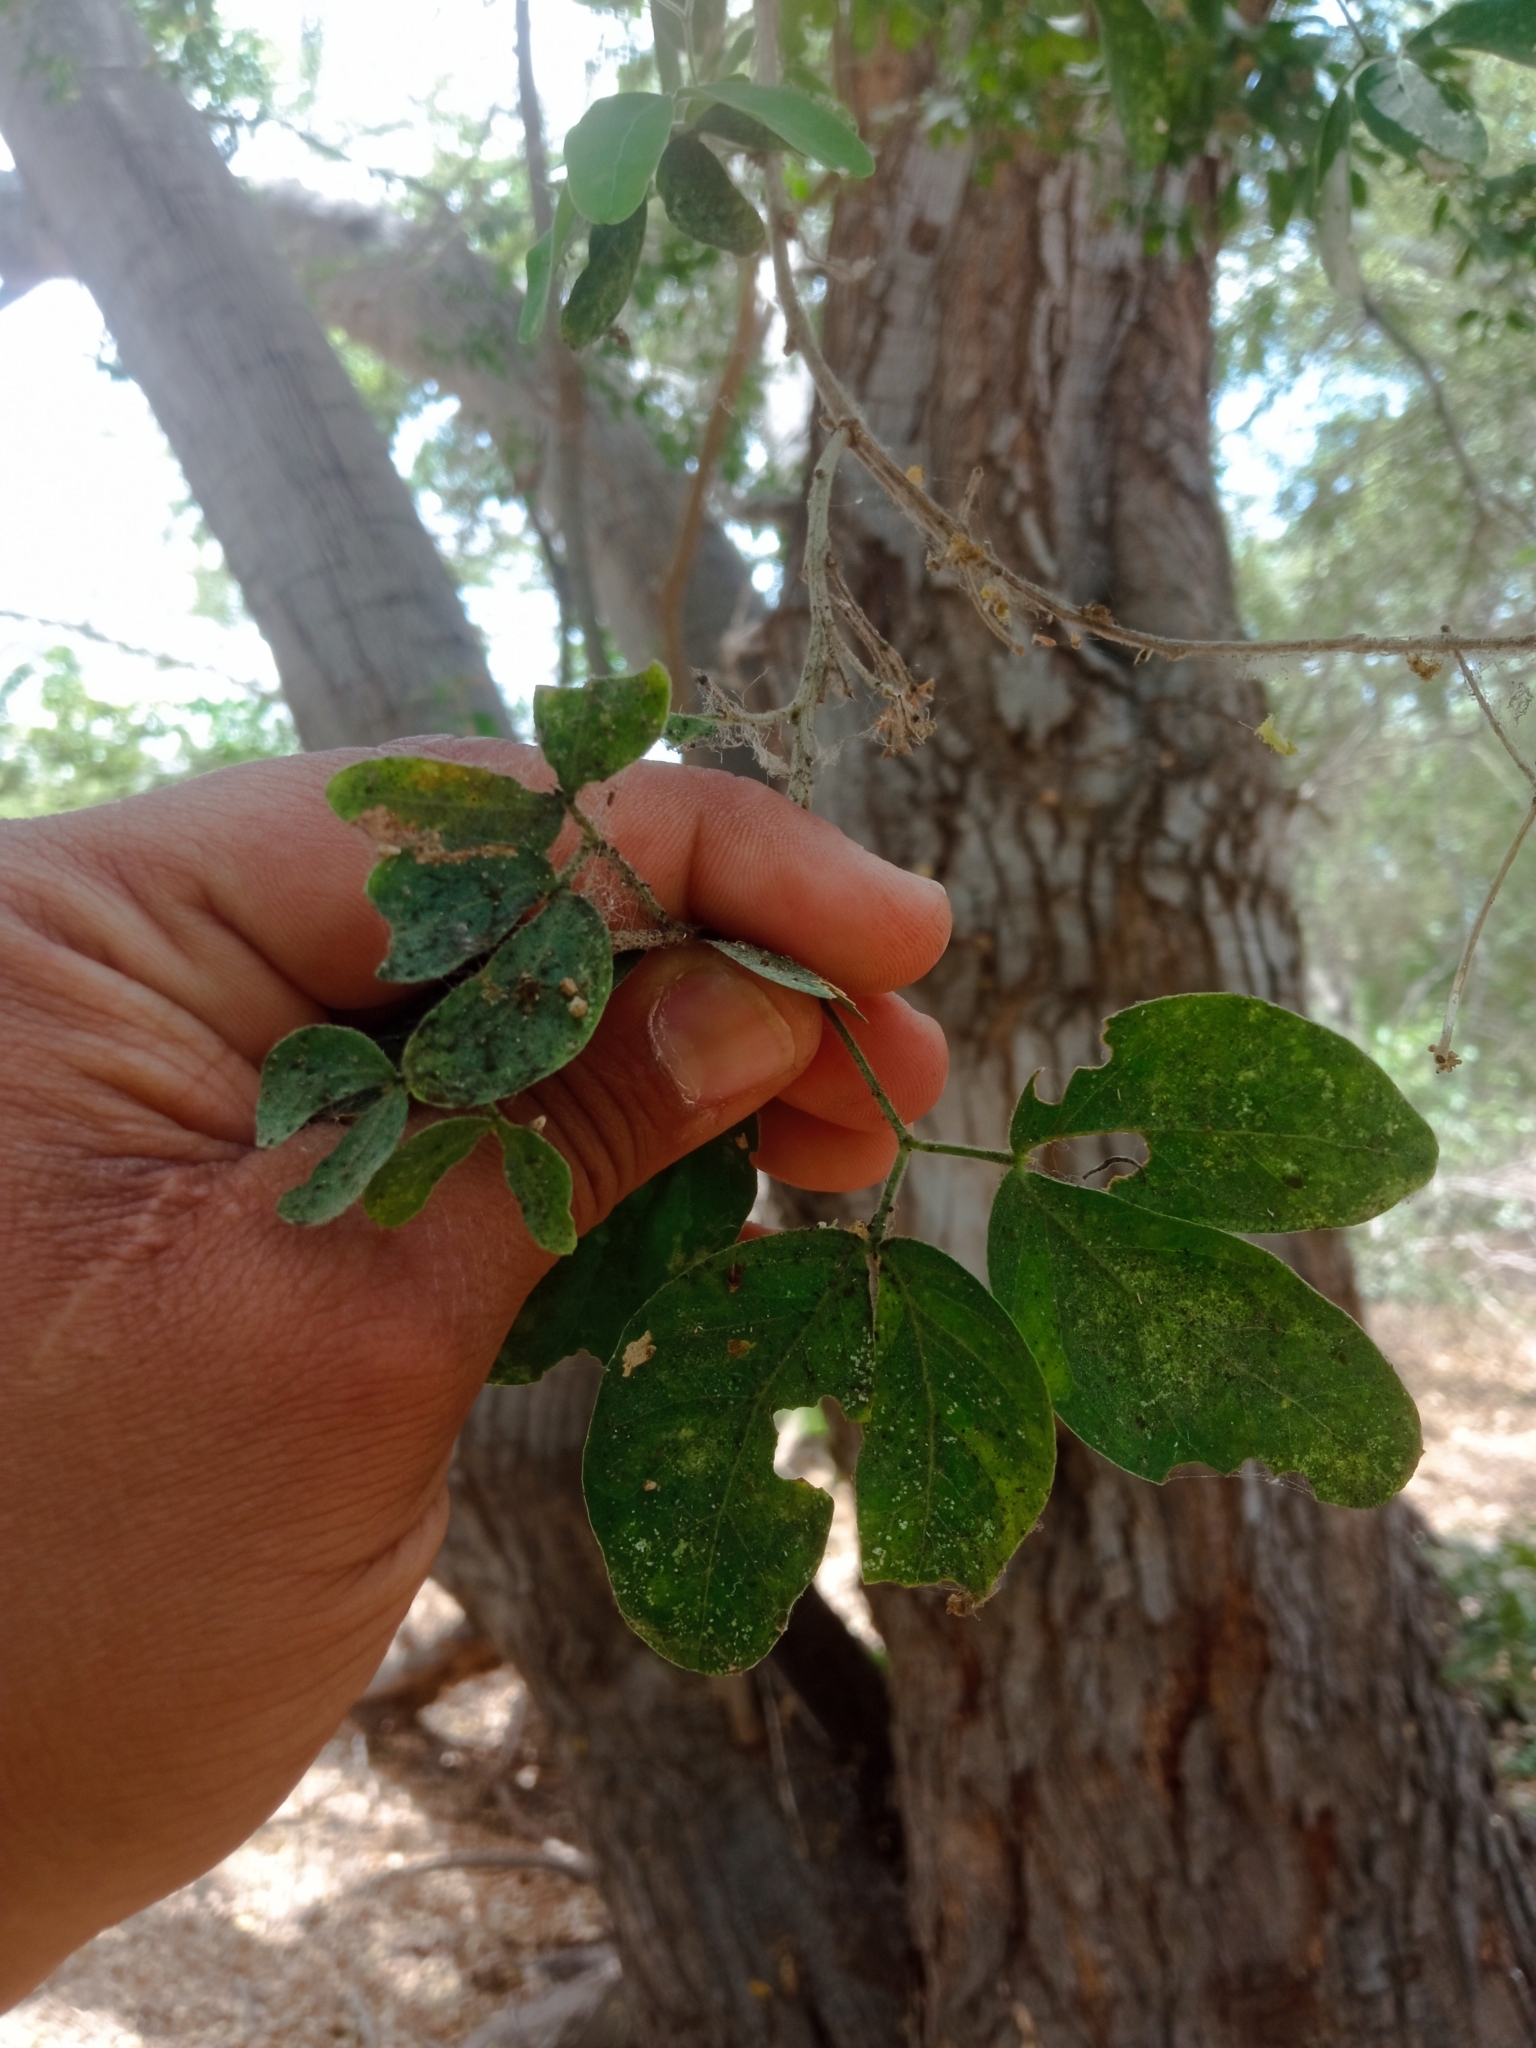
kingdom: Plantae
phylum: Tracheophyta
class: Magnoliopsida
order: Fabales
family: Fabaceae
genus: Pithecellobium
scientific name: Pithecellobium dulce
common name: Monkeypod
